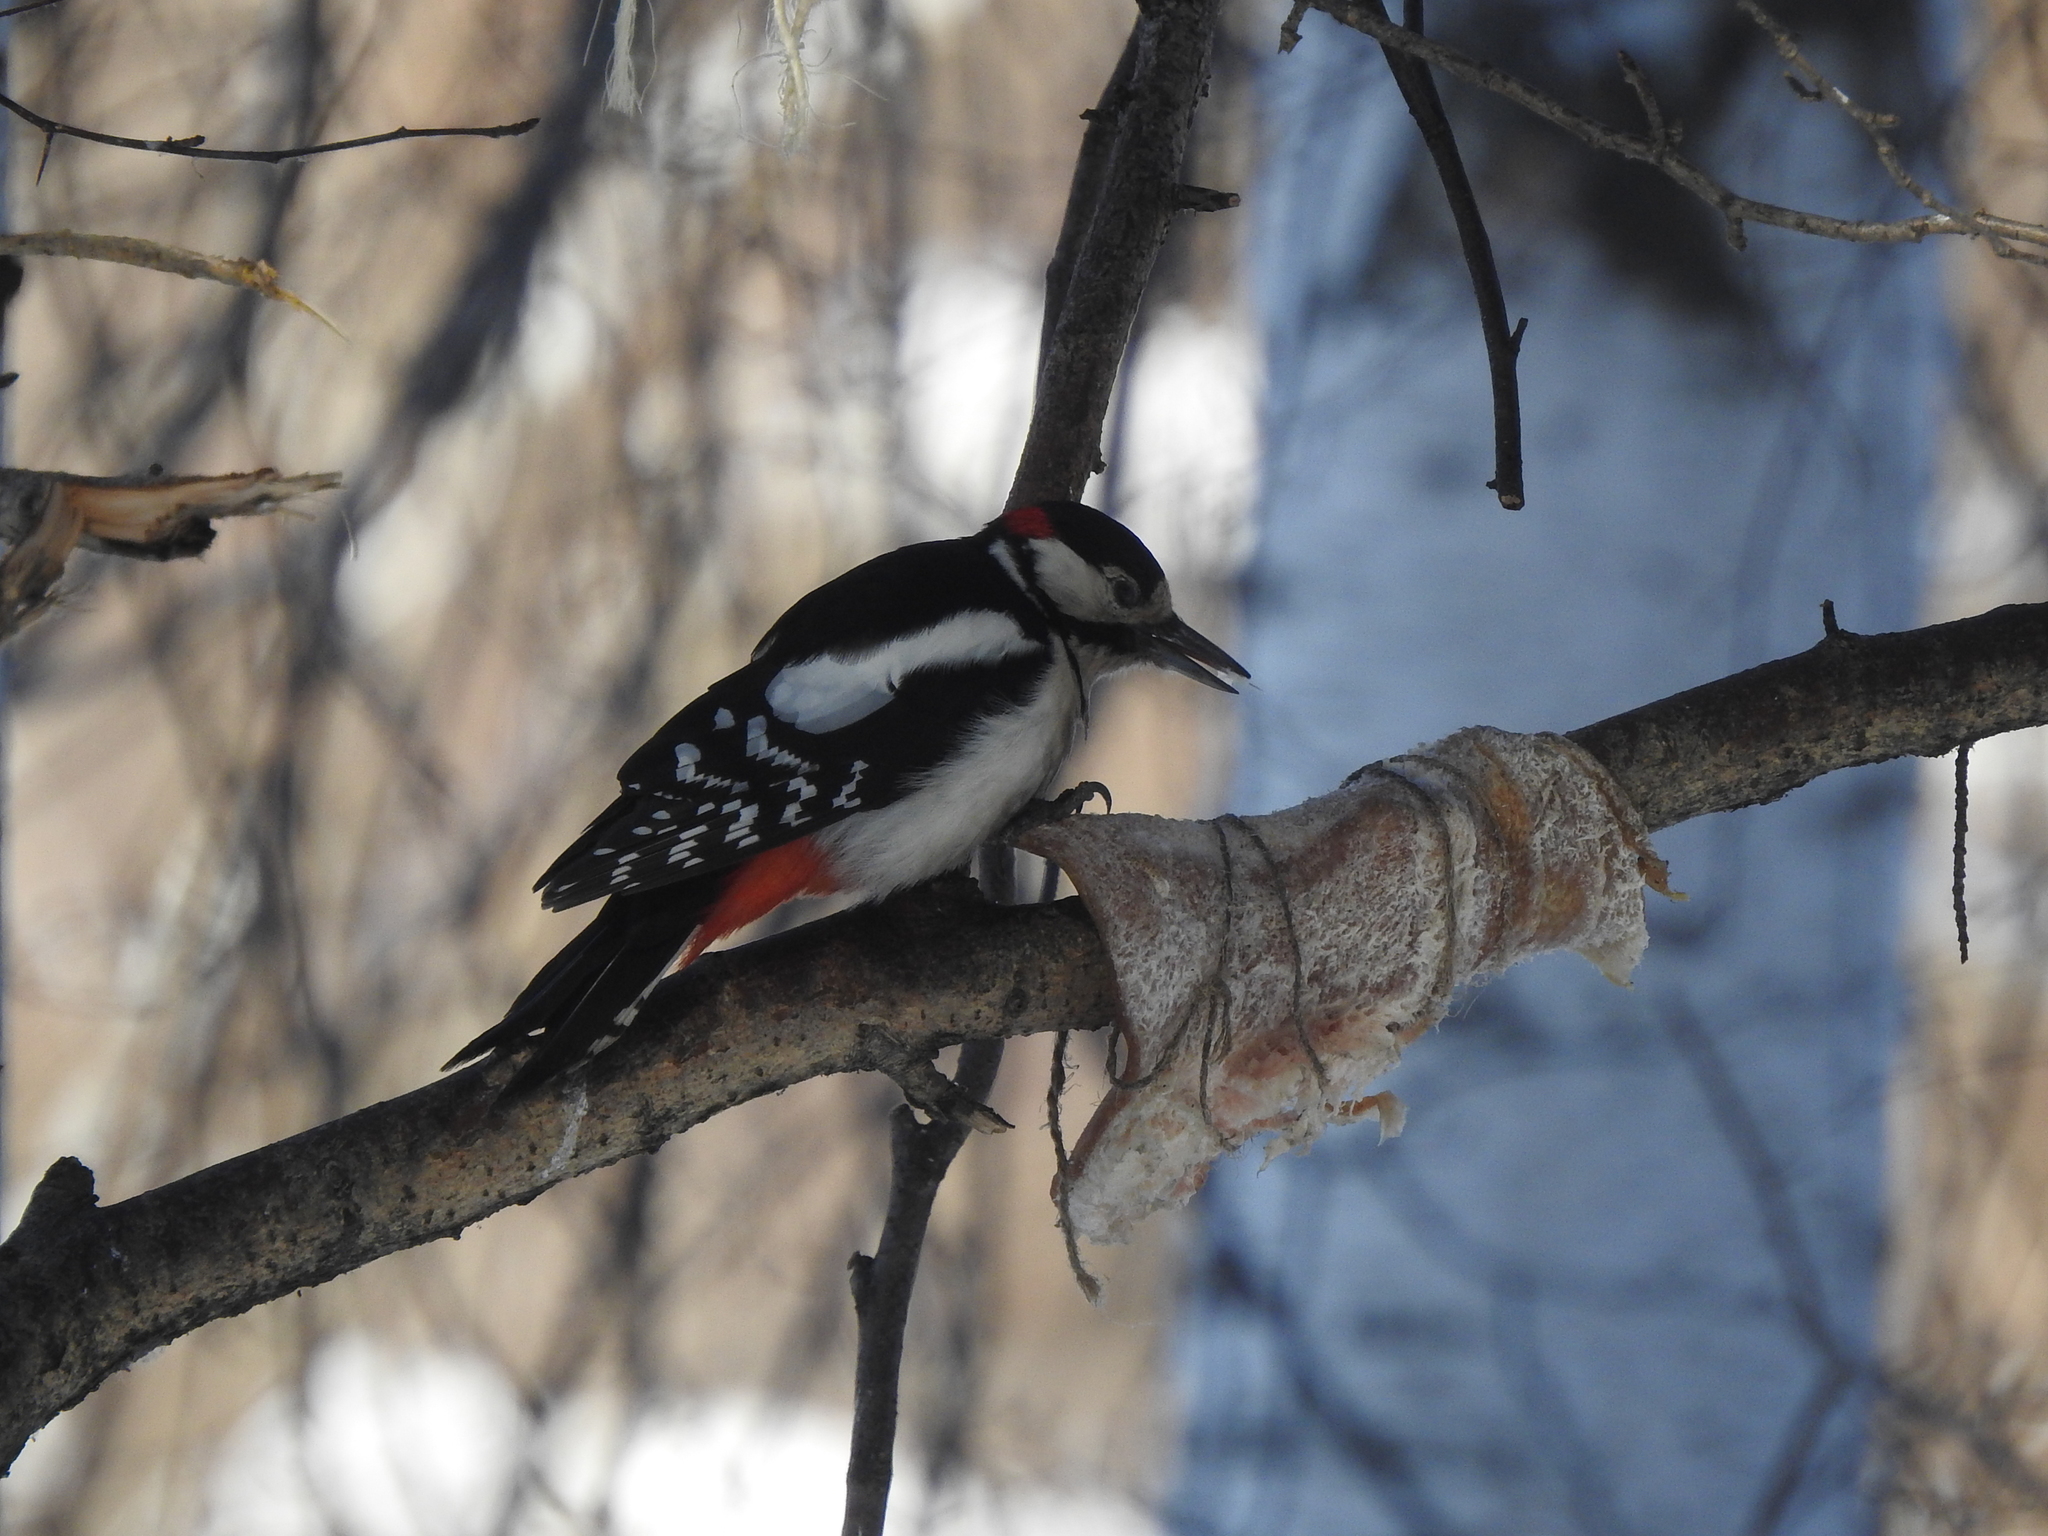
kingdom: Animalia
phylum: Chordata
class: Aves
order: Piciformes
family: Picidae
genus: Dendrocopos
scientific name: Dendrocopos major
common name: Great spotted woodpecker
